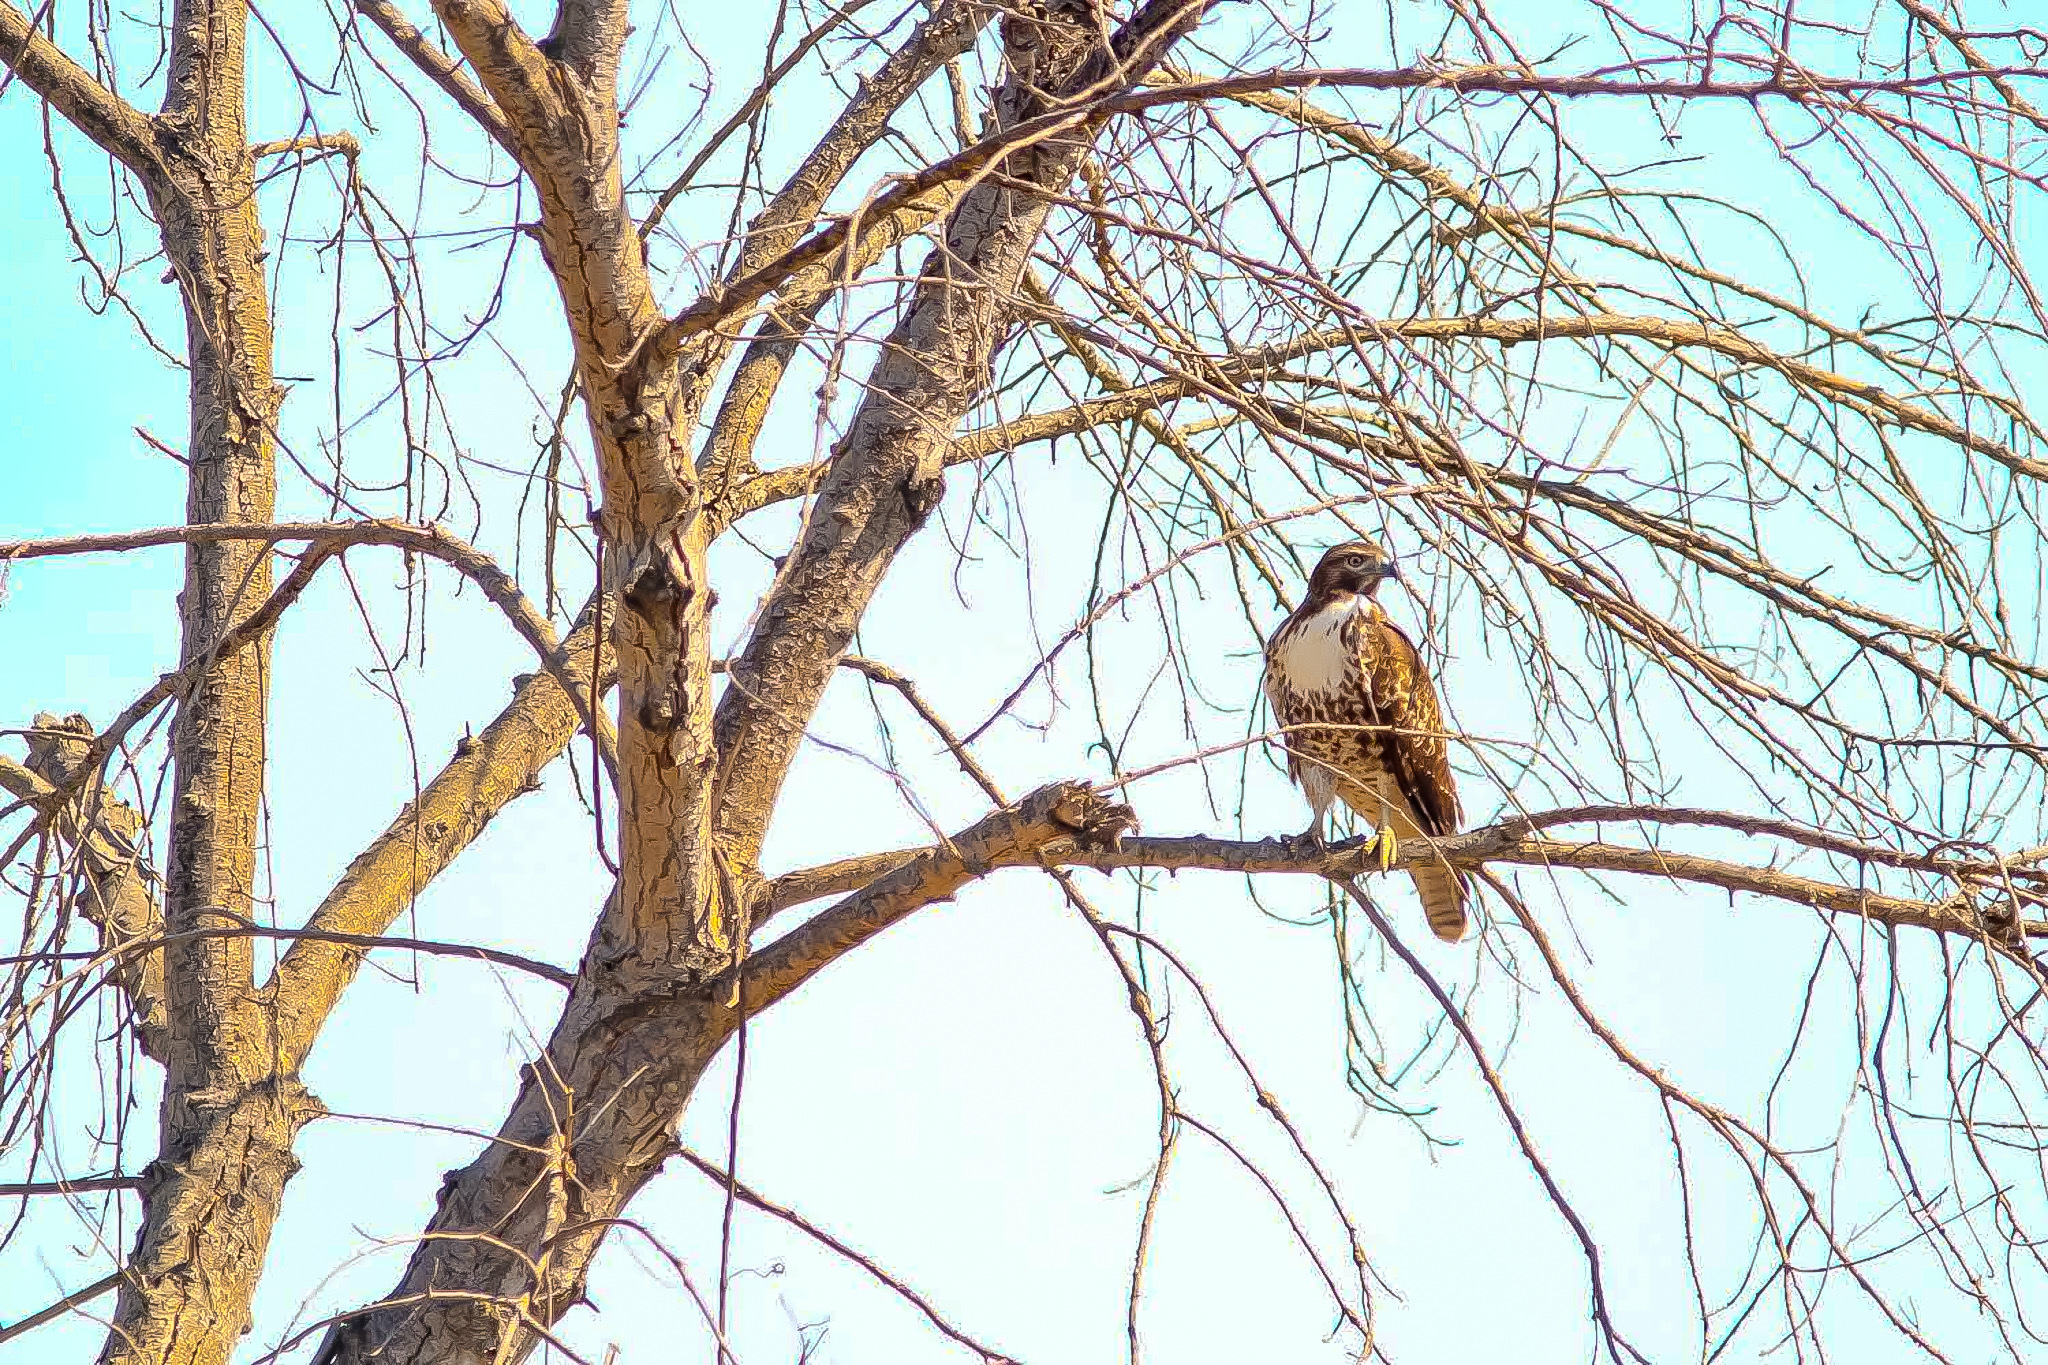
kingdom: Animalia
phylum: Chordata
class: Aves
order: Accipitriformes
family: Accipitridae
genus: Buteo
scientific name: Buteo jamaicensis
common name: Red-tailed hawk
